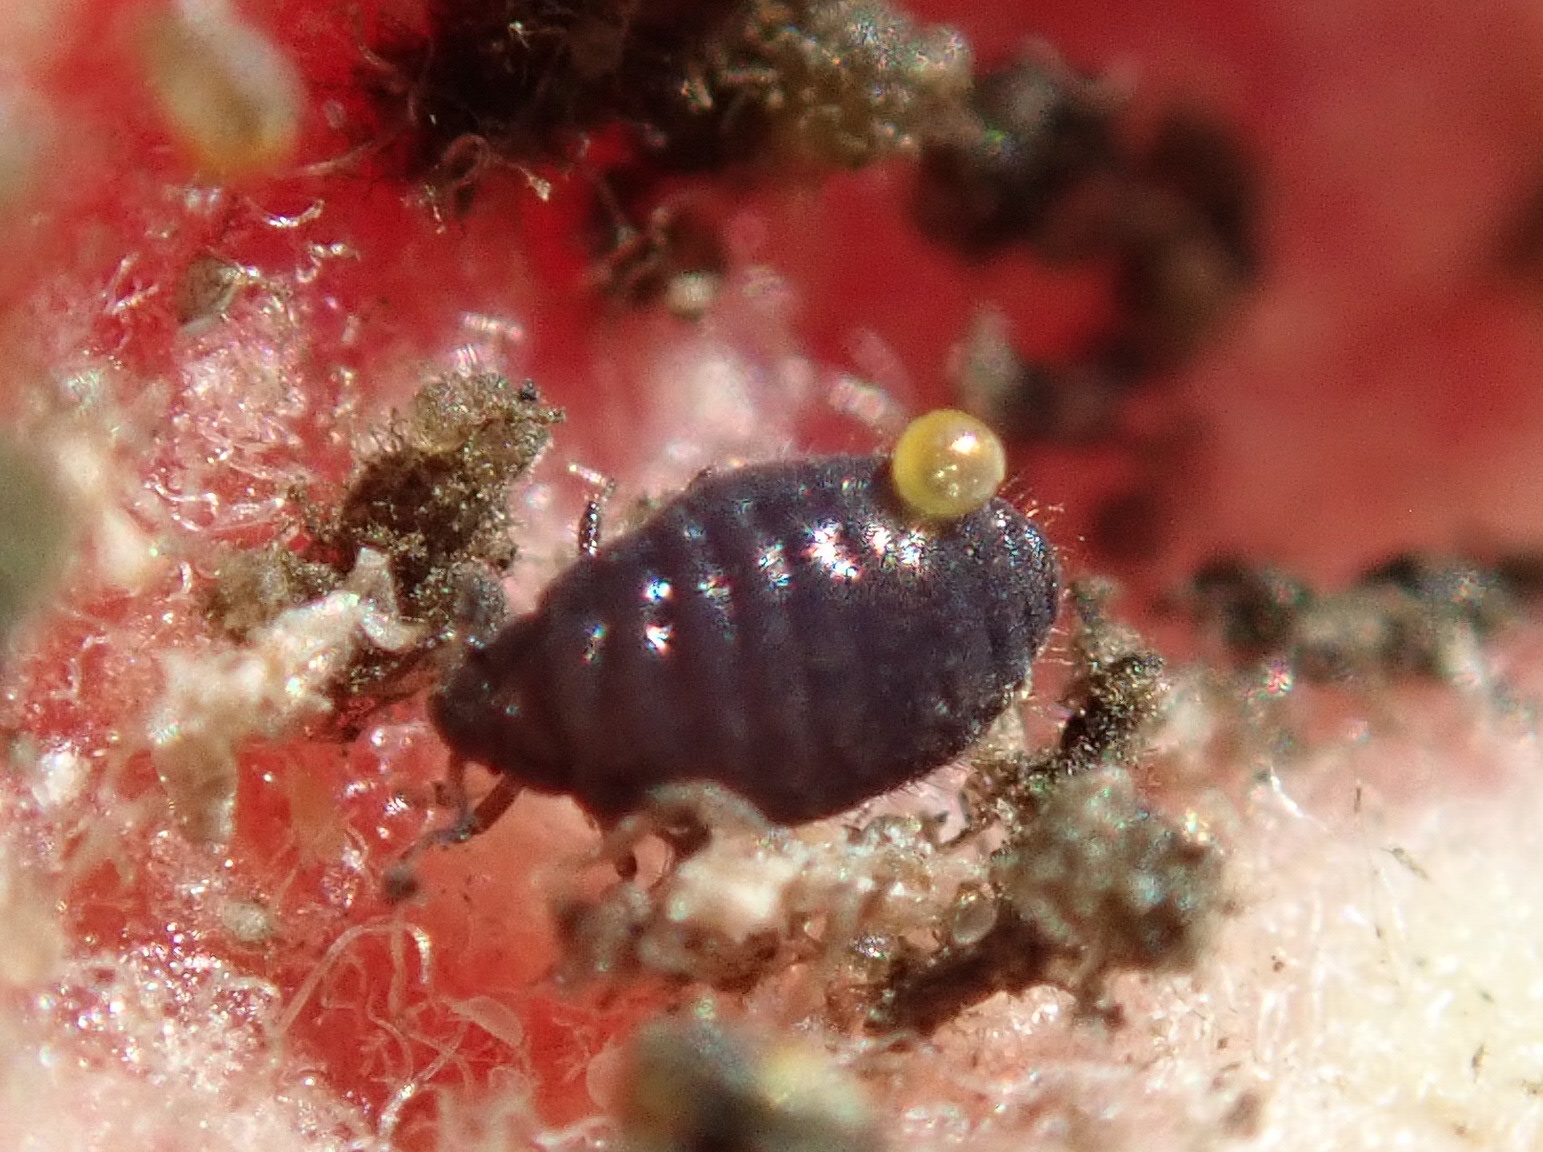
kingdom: Animalia
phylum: Arthropoda
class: Insecta
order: Hemiptera
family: Aphididae
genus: Tamalia
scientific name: Tamalia inquilina
